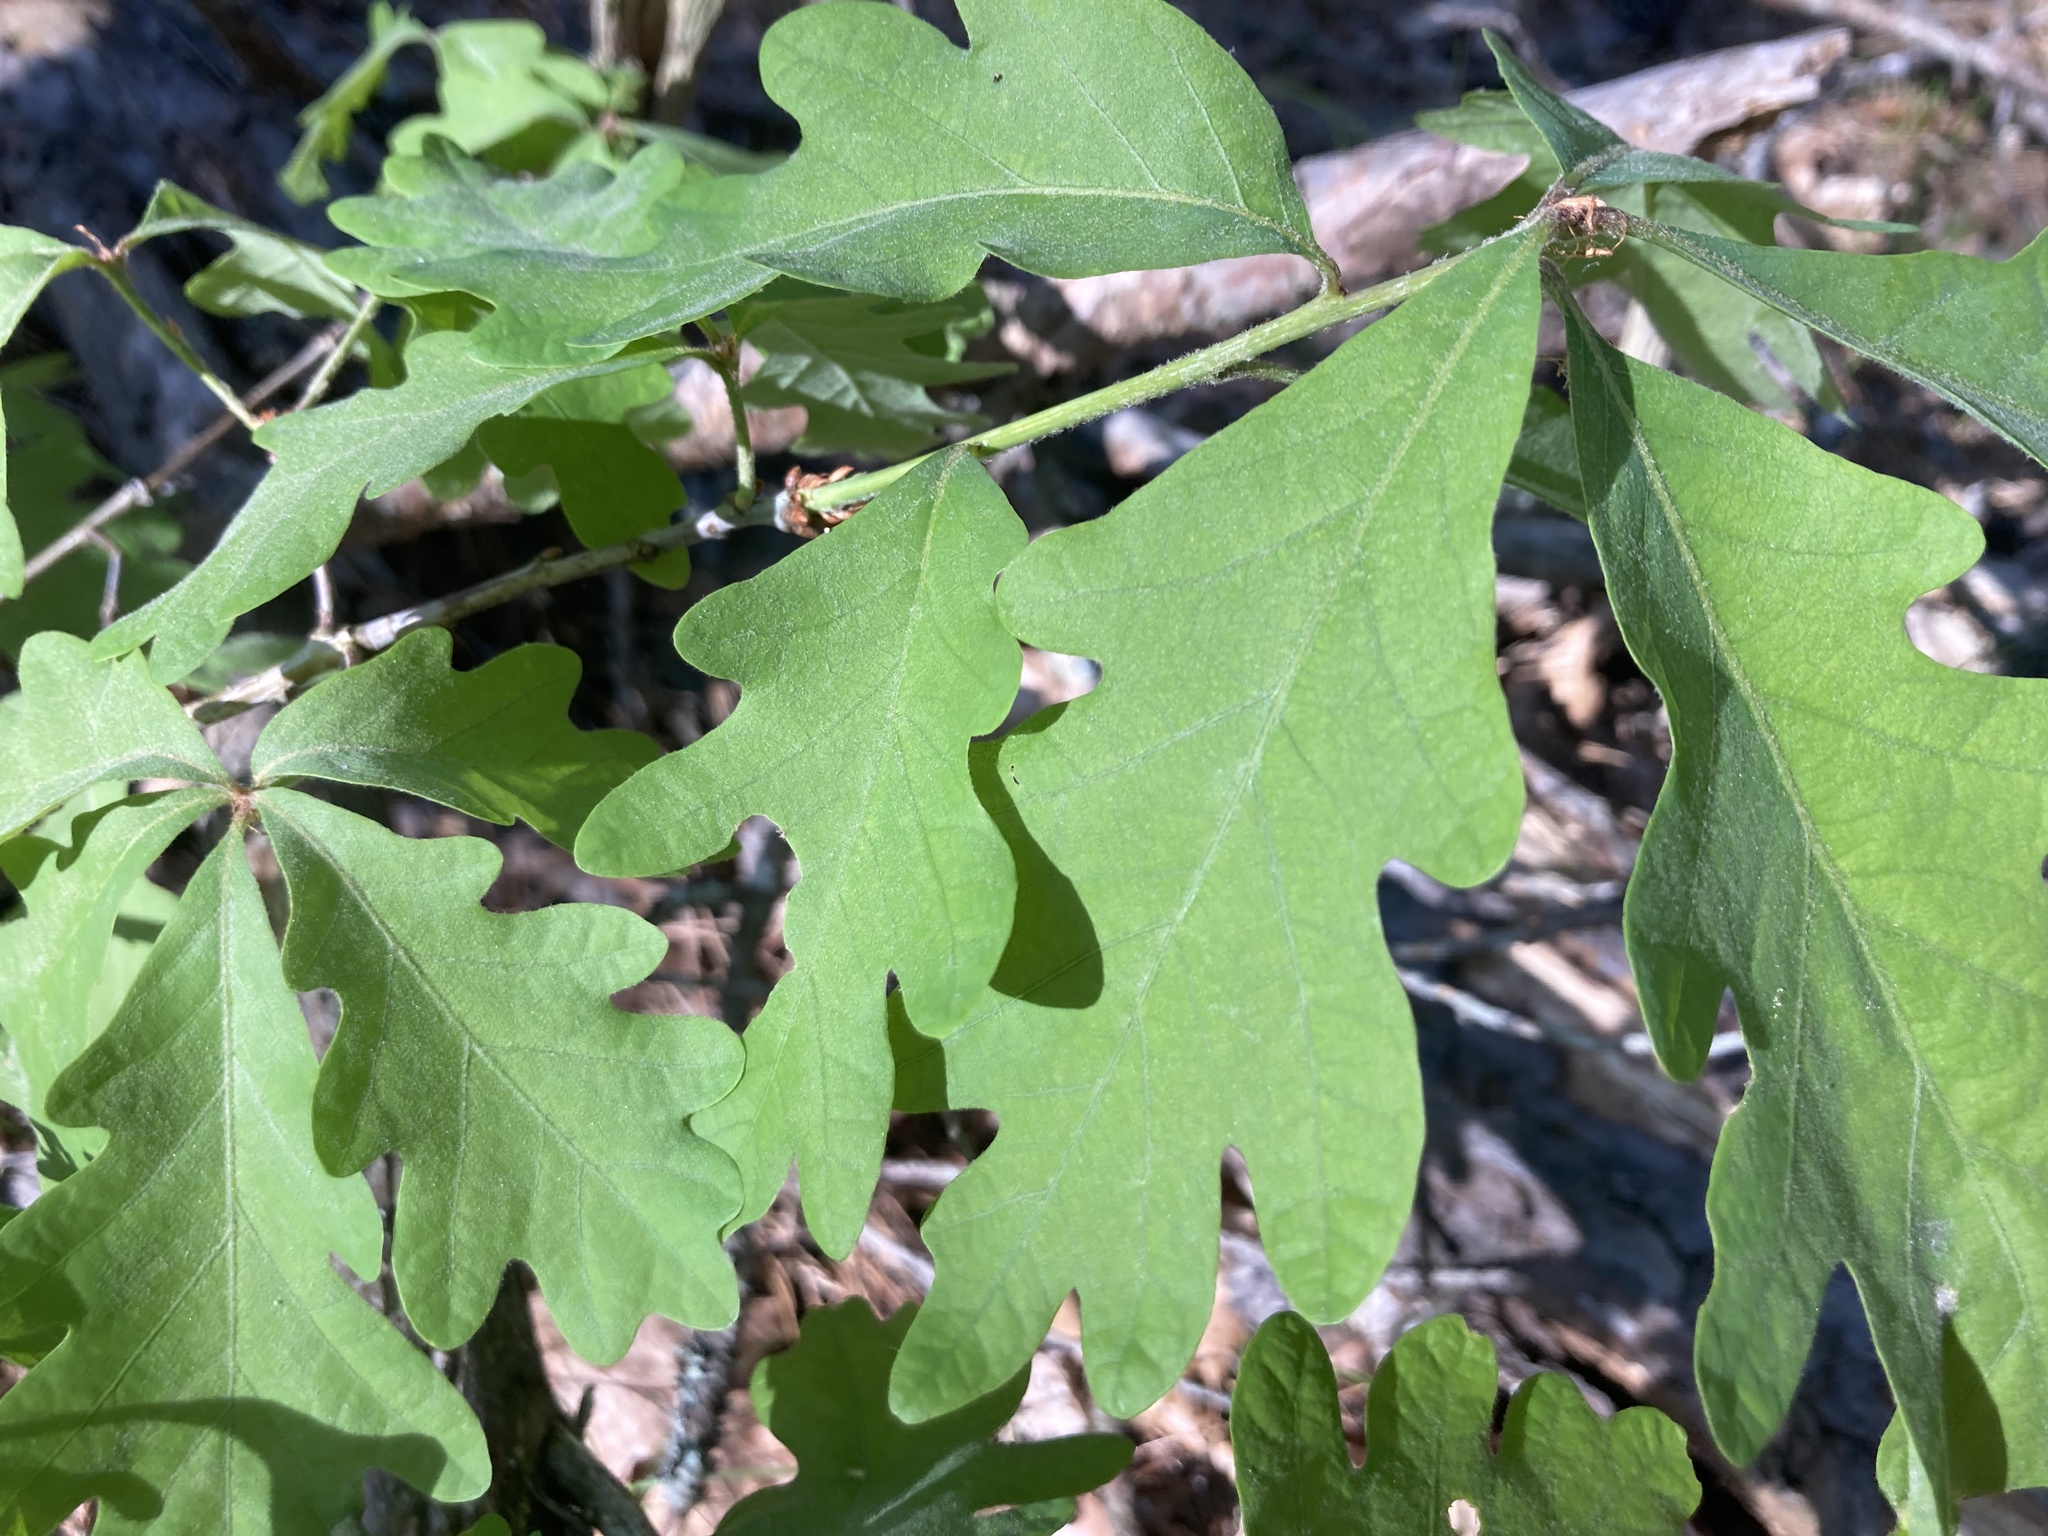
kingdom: Plantae
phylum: Tracheophyta
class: Magnoliopsida
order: Fagales
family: Fagaceae
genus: Quercus
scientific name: Quercus alba
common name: White oak
